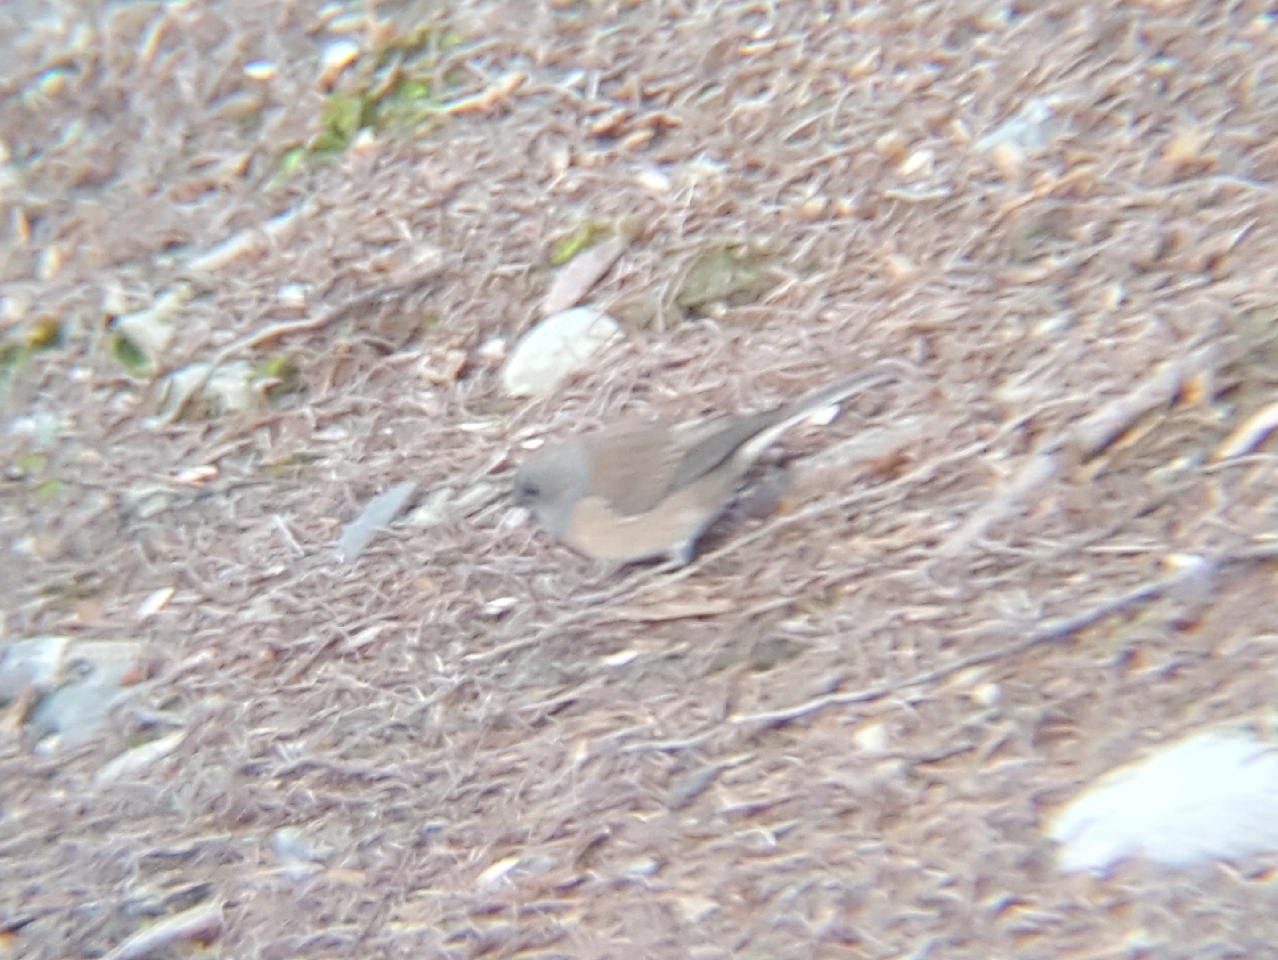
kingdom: Animalia
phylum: Chordata
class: Aves
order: Passeriformes
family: Passerellidae
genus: Junco
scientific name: Junco hyemalis
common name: Dark-eyed junco
